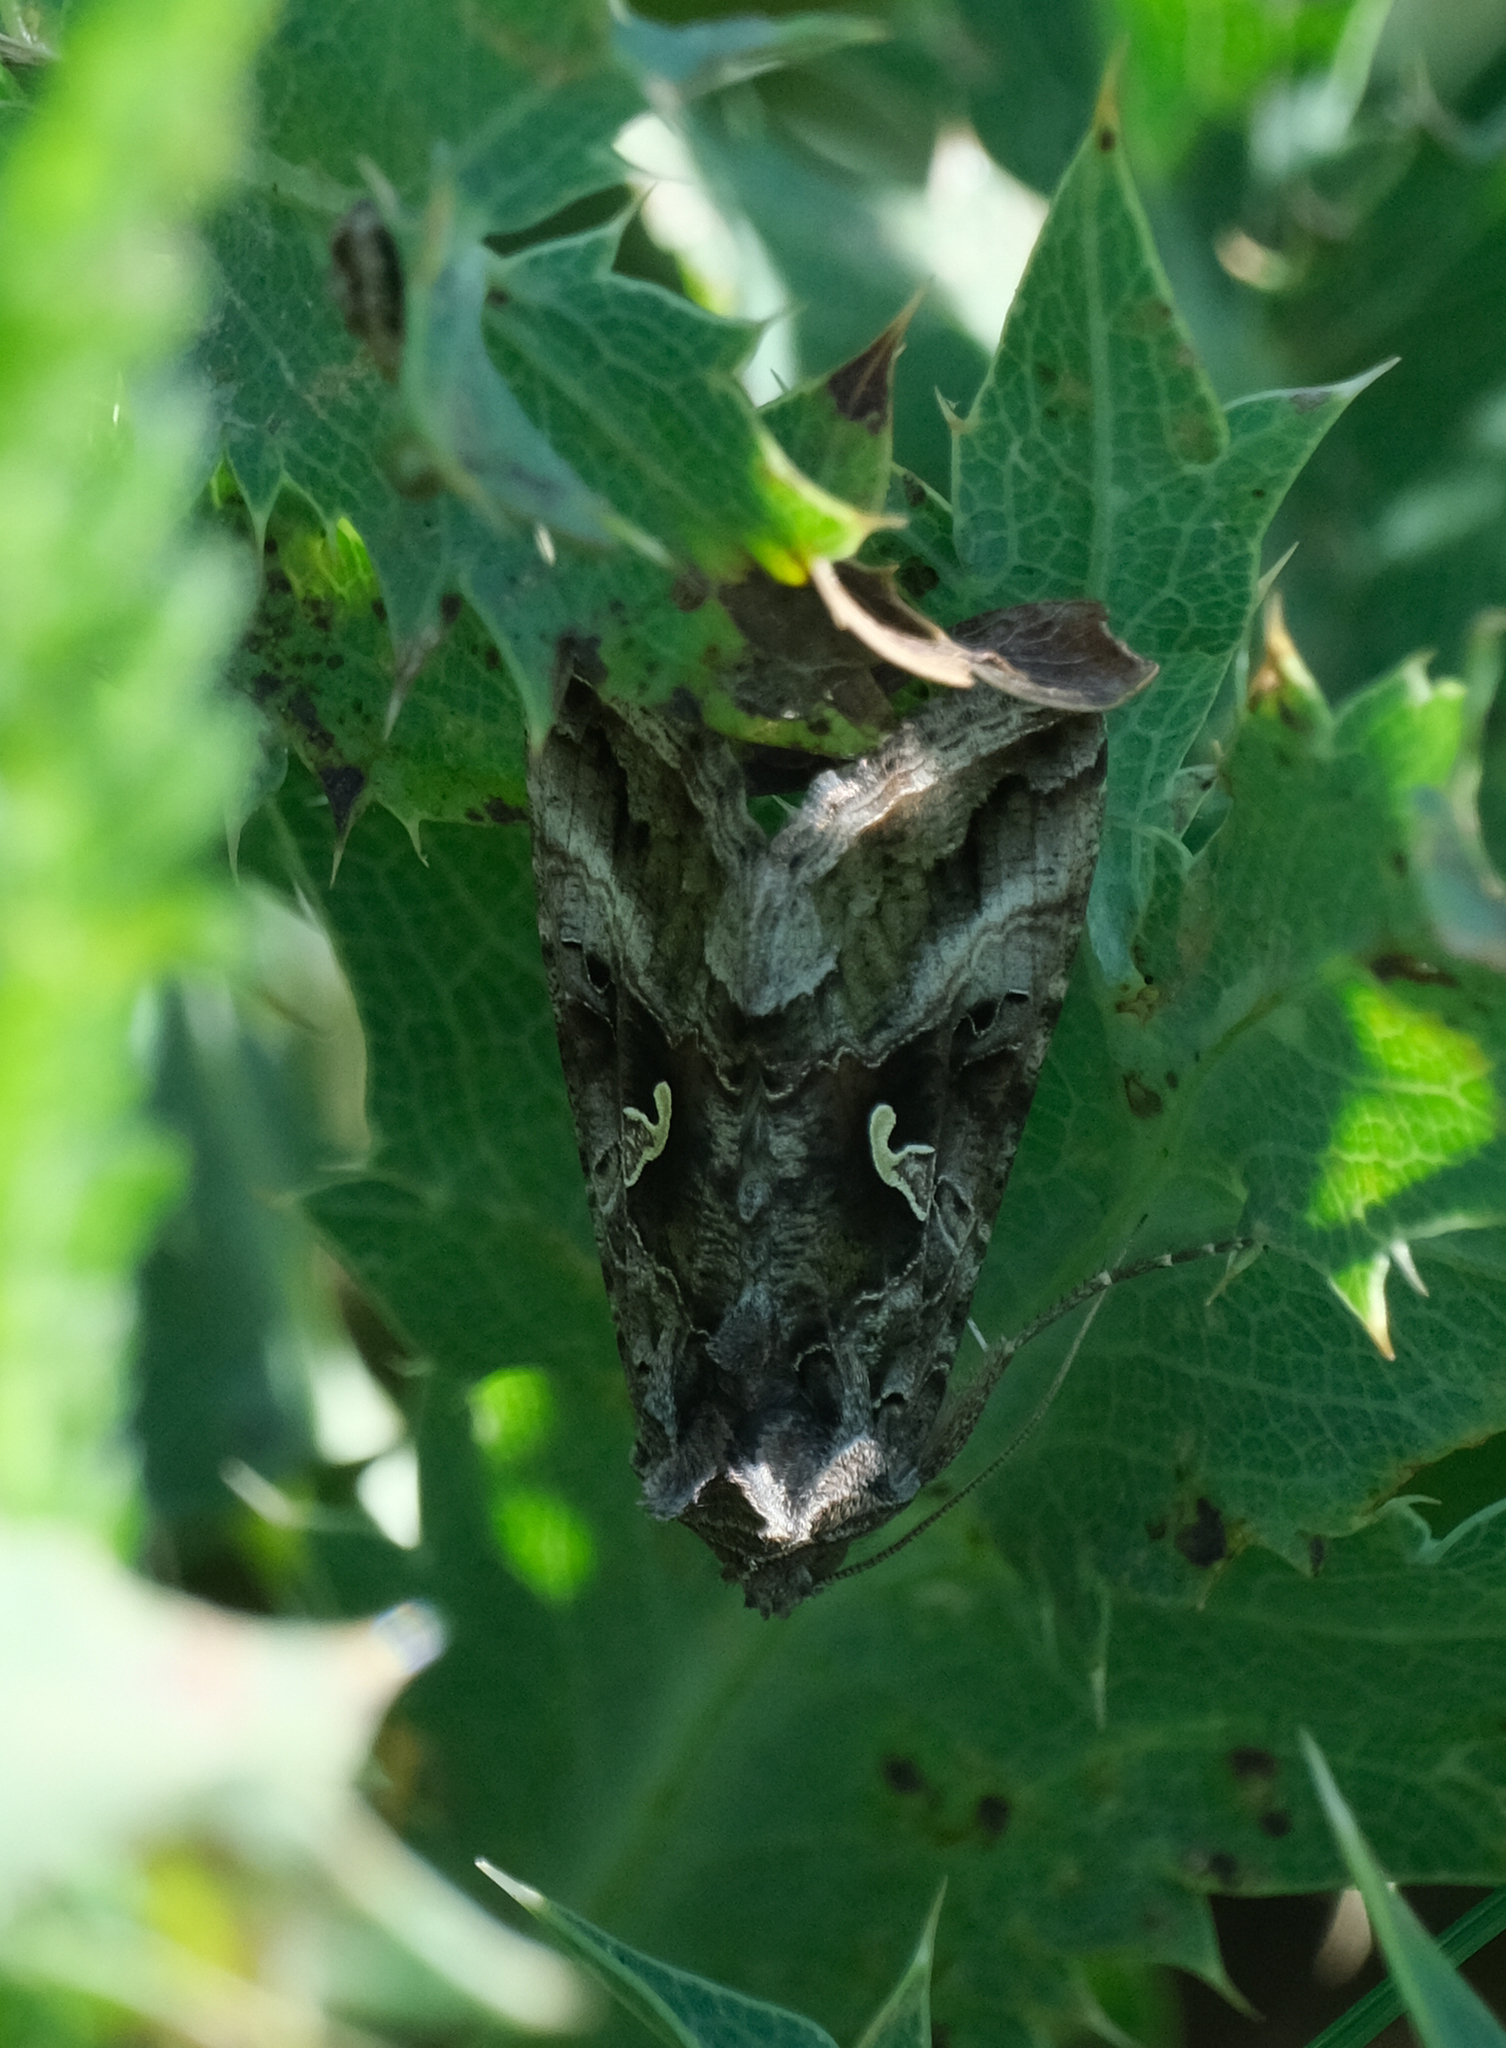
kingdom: Animalia
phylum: Arthropoda
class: Insecta
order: Lepidoptera
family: Noctuidae
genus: Autographa
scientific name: Autographa gamma
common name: Silver y
